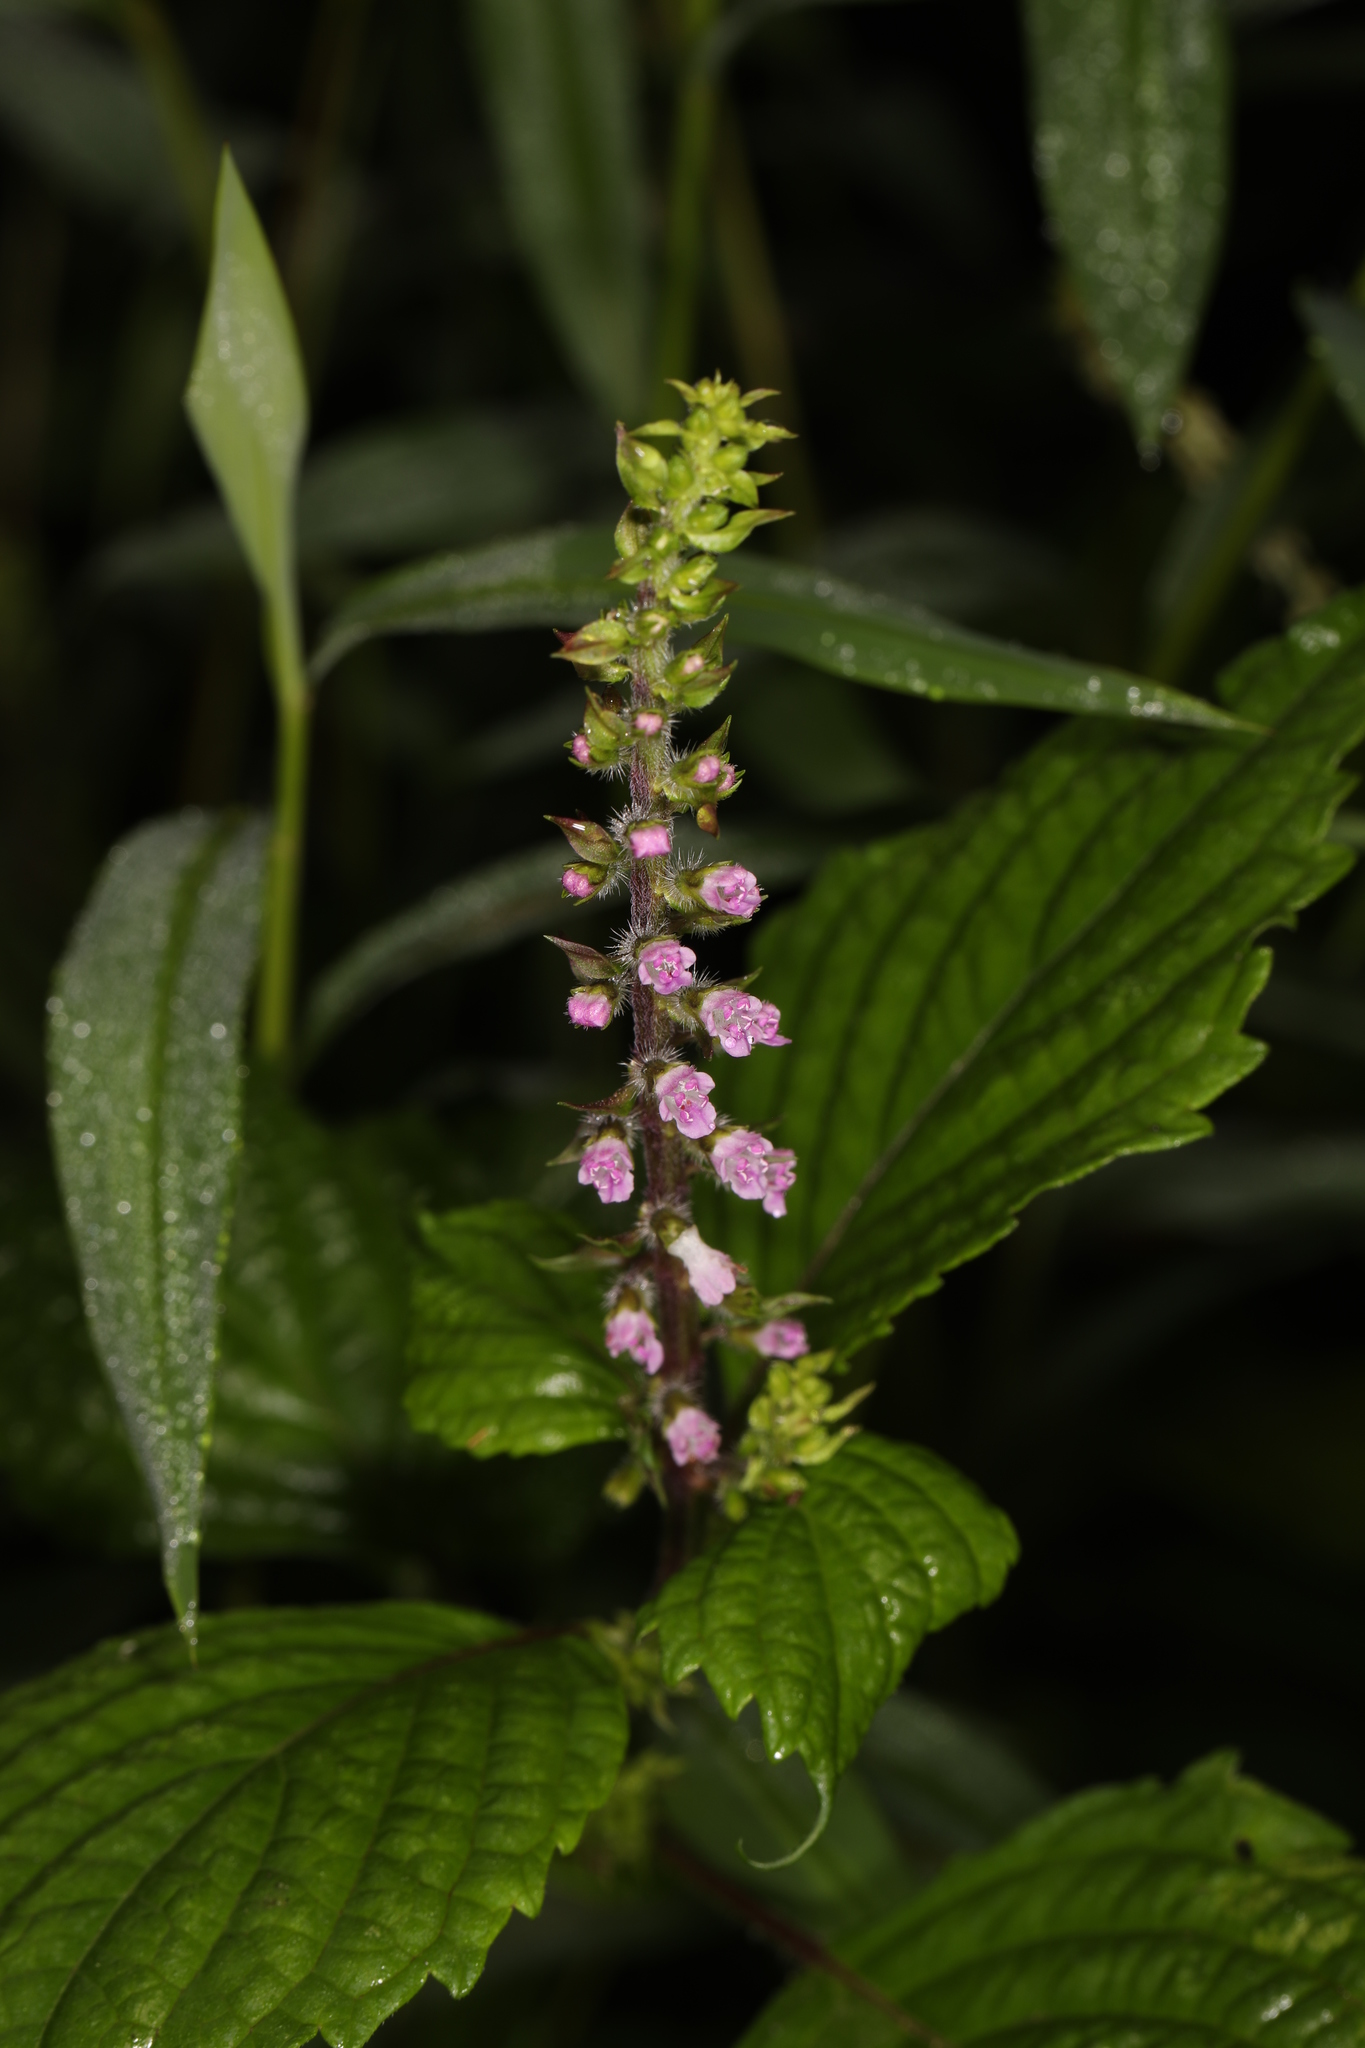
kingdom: Plantae
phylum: Tracheophyta
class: Magnoliopsida
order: Lamiales
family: Lamiaceae
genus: Perilla
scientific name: Perilla frutescens
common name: Perilla
